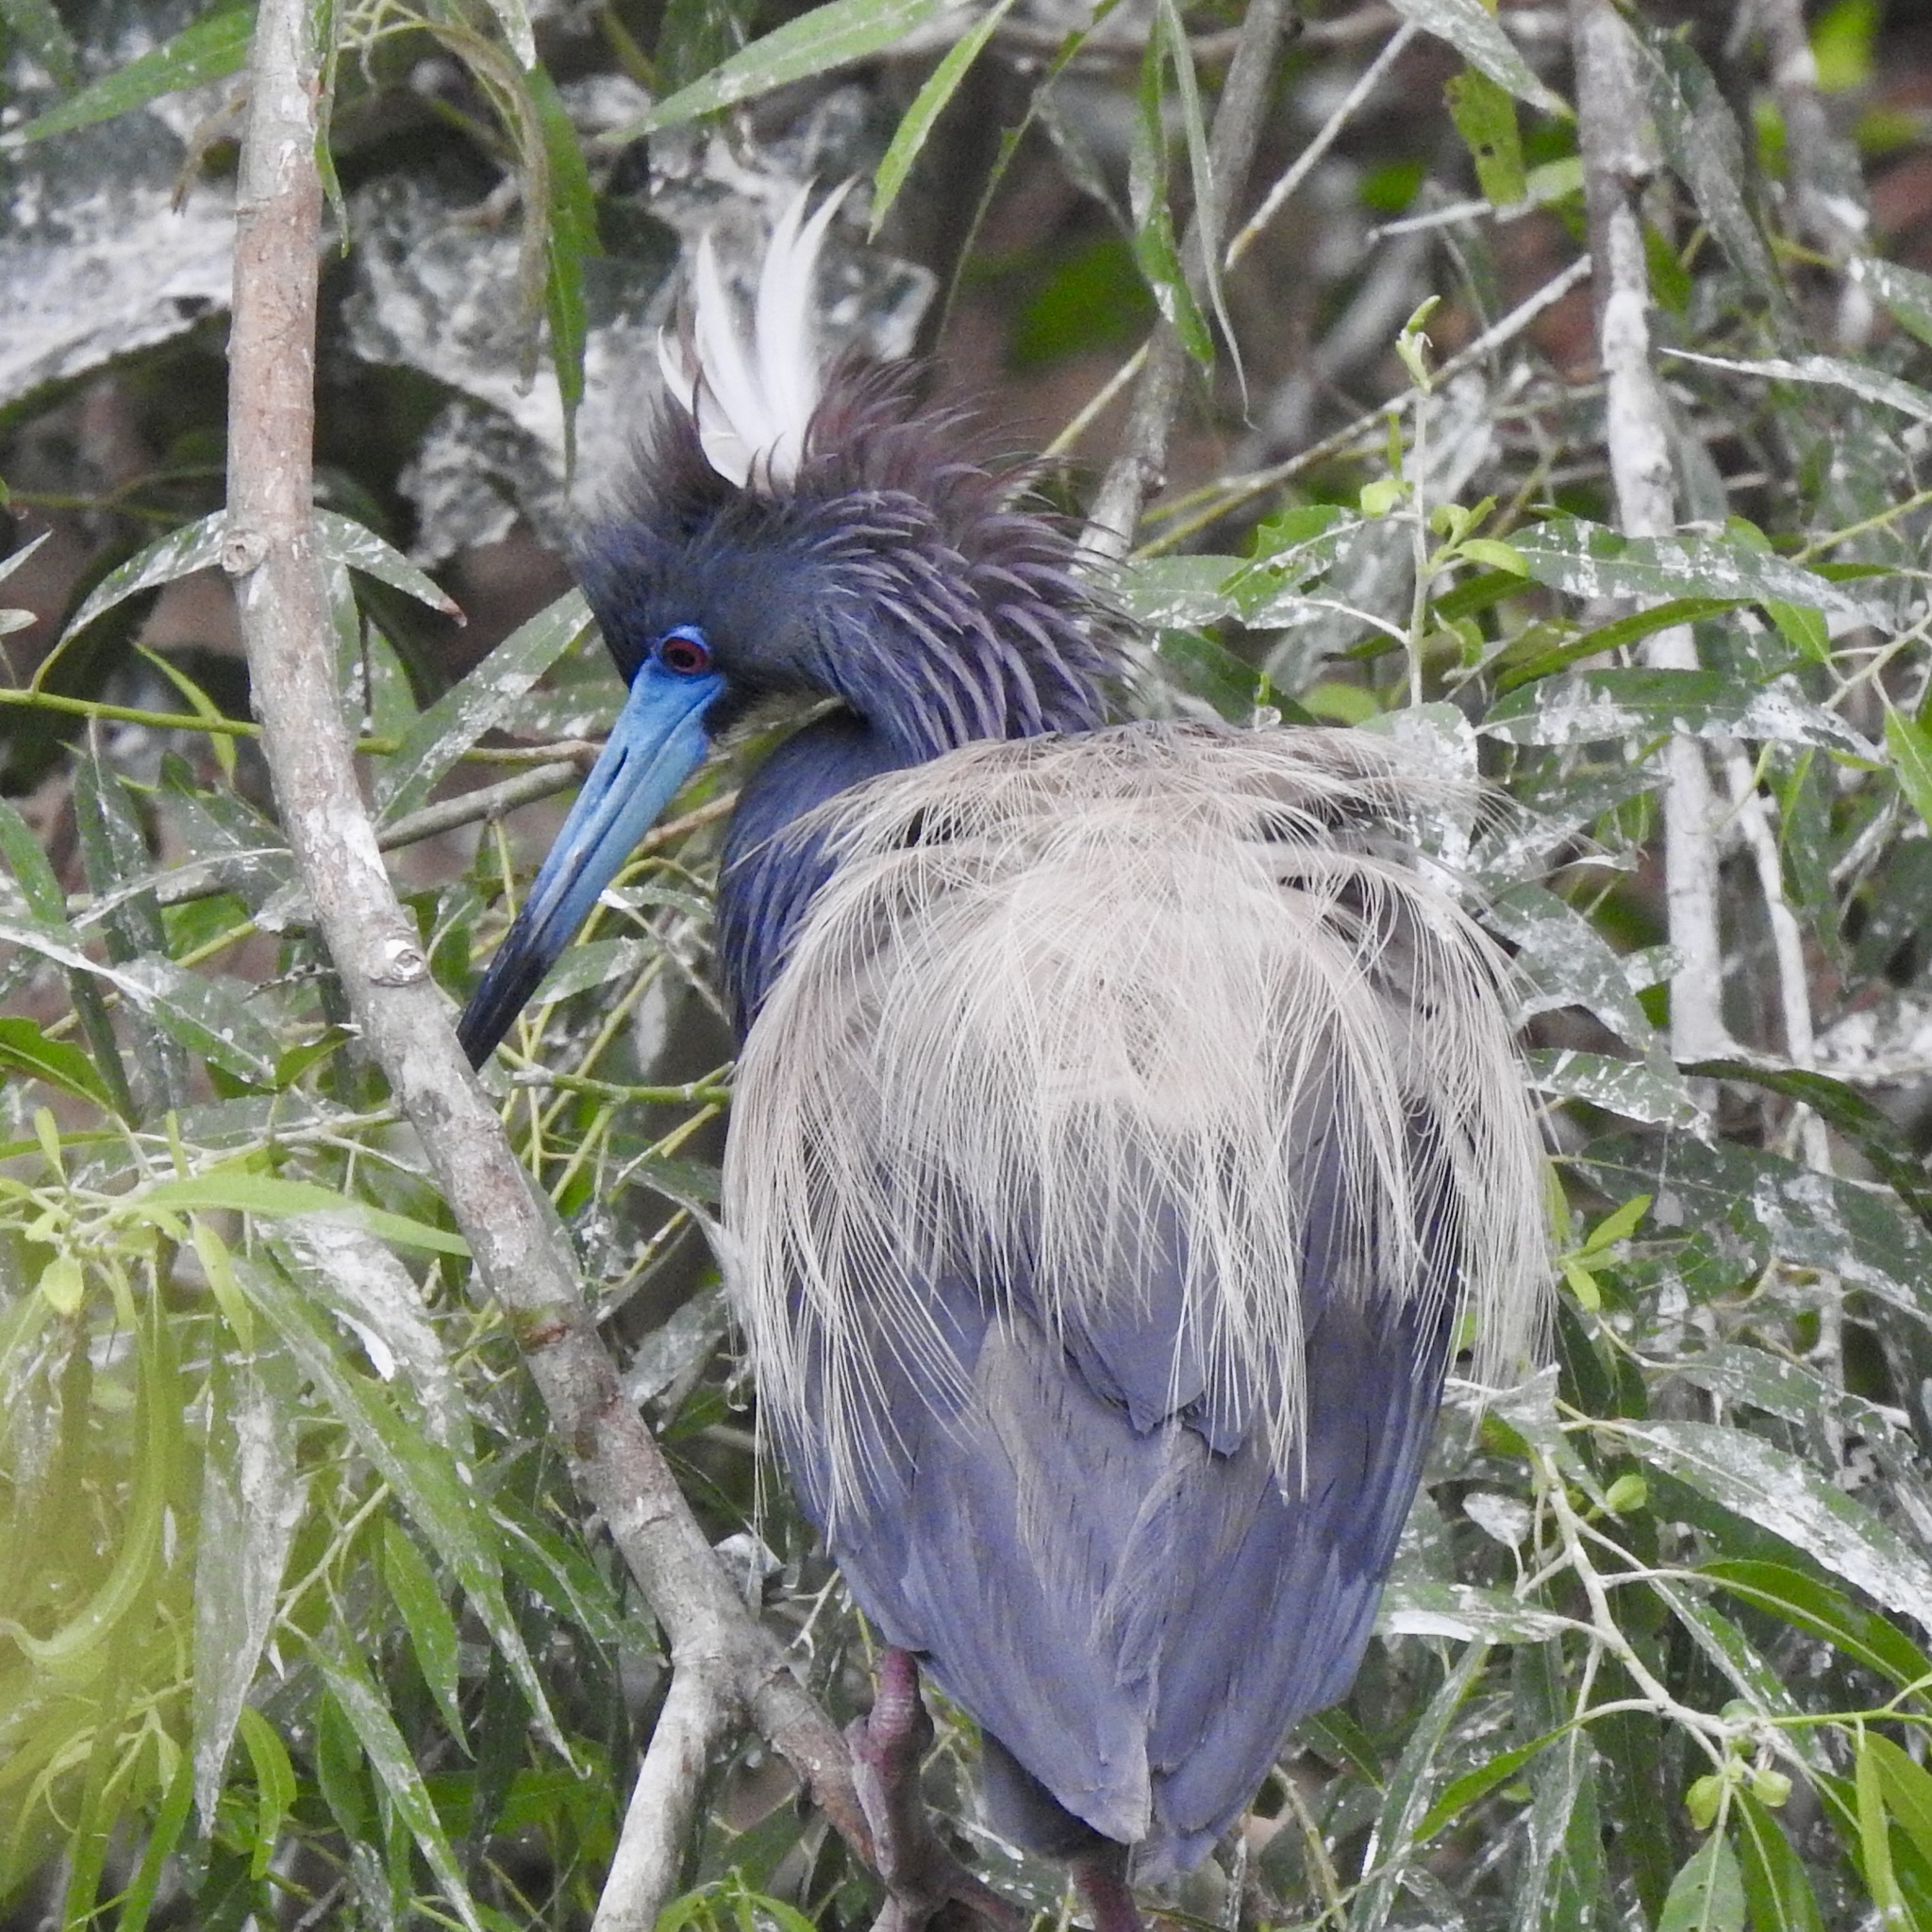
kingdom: Animalia
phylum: Chordata
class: Aves
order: Pelecaniformes
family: Ardeidae
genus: Egretta
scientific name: Egretta tricolor
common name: Tricolored heron
